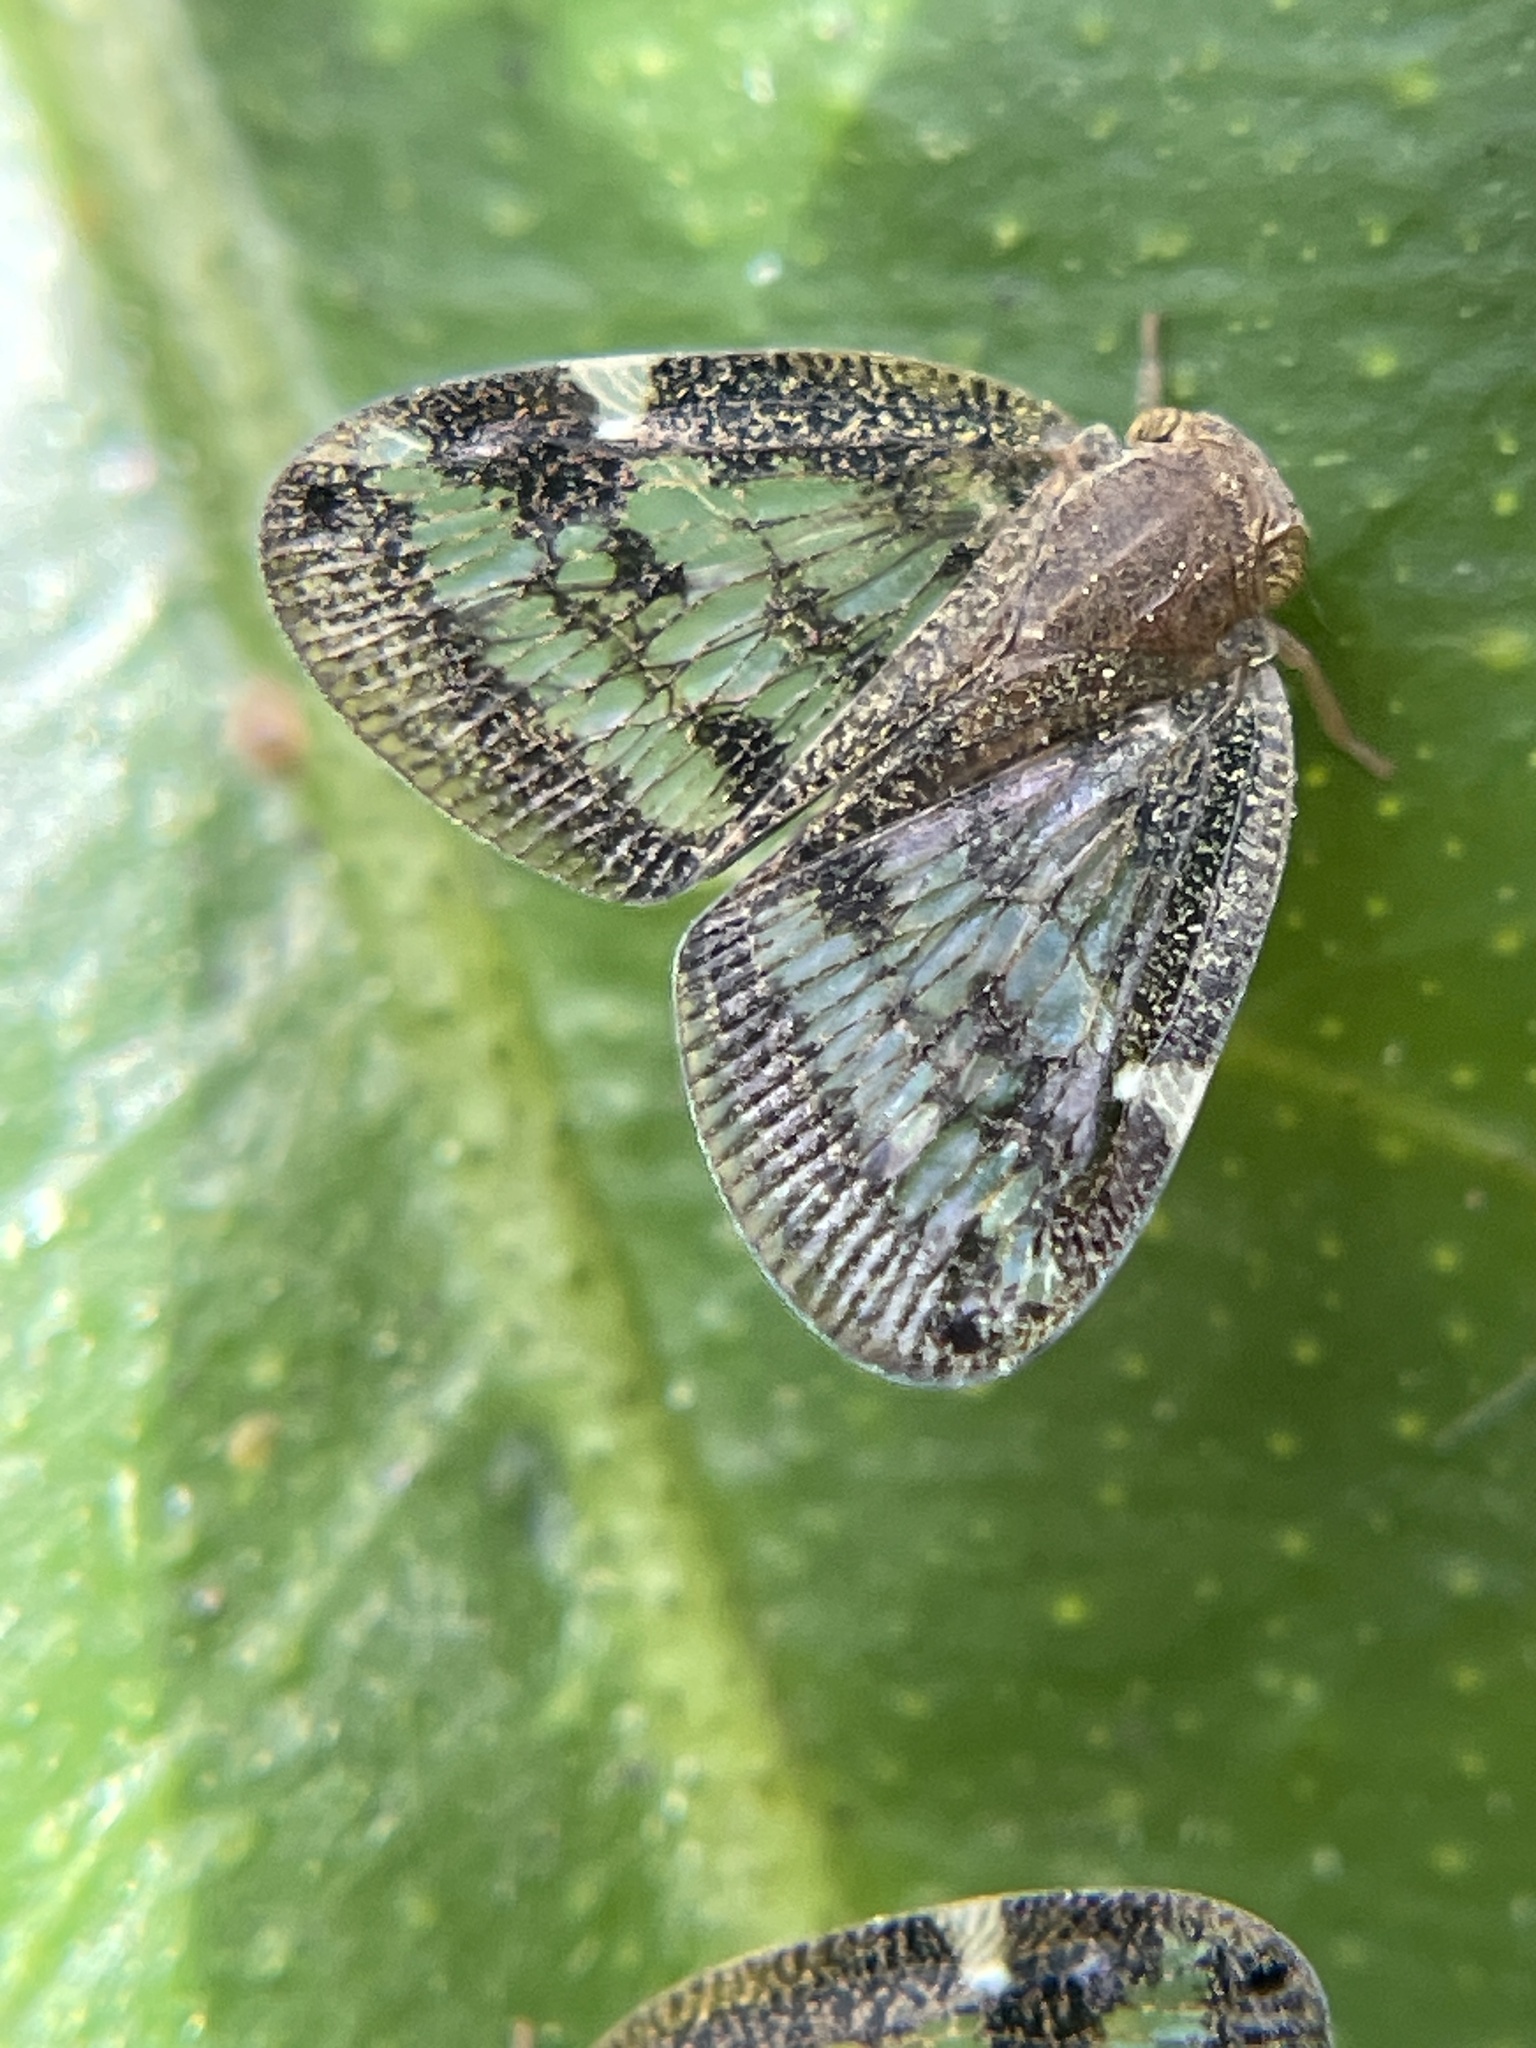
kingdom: Animalia
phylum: Arthropoda
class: Insecta
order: Hemiptera
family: Ricaniidae
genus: Scolypopa
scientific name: Scolypopa australis
